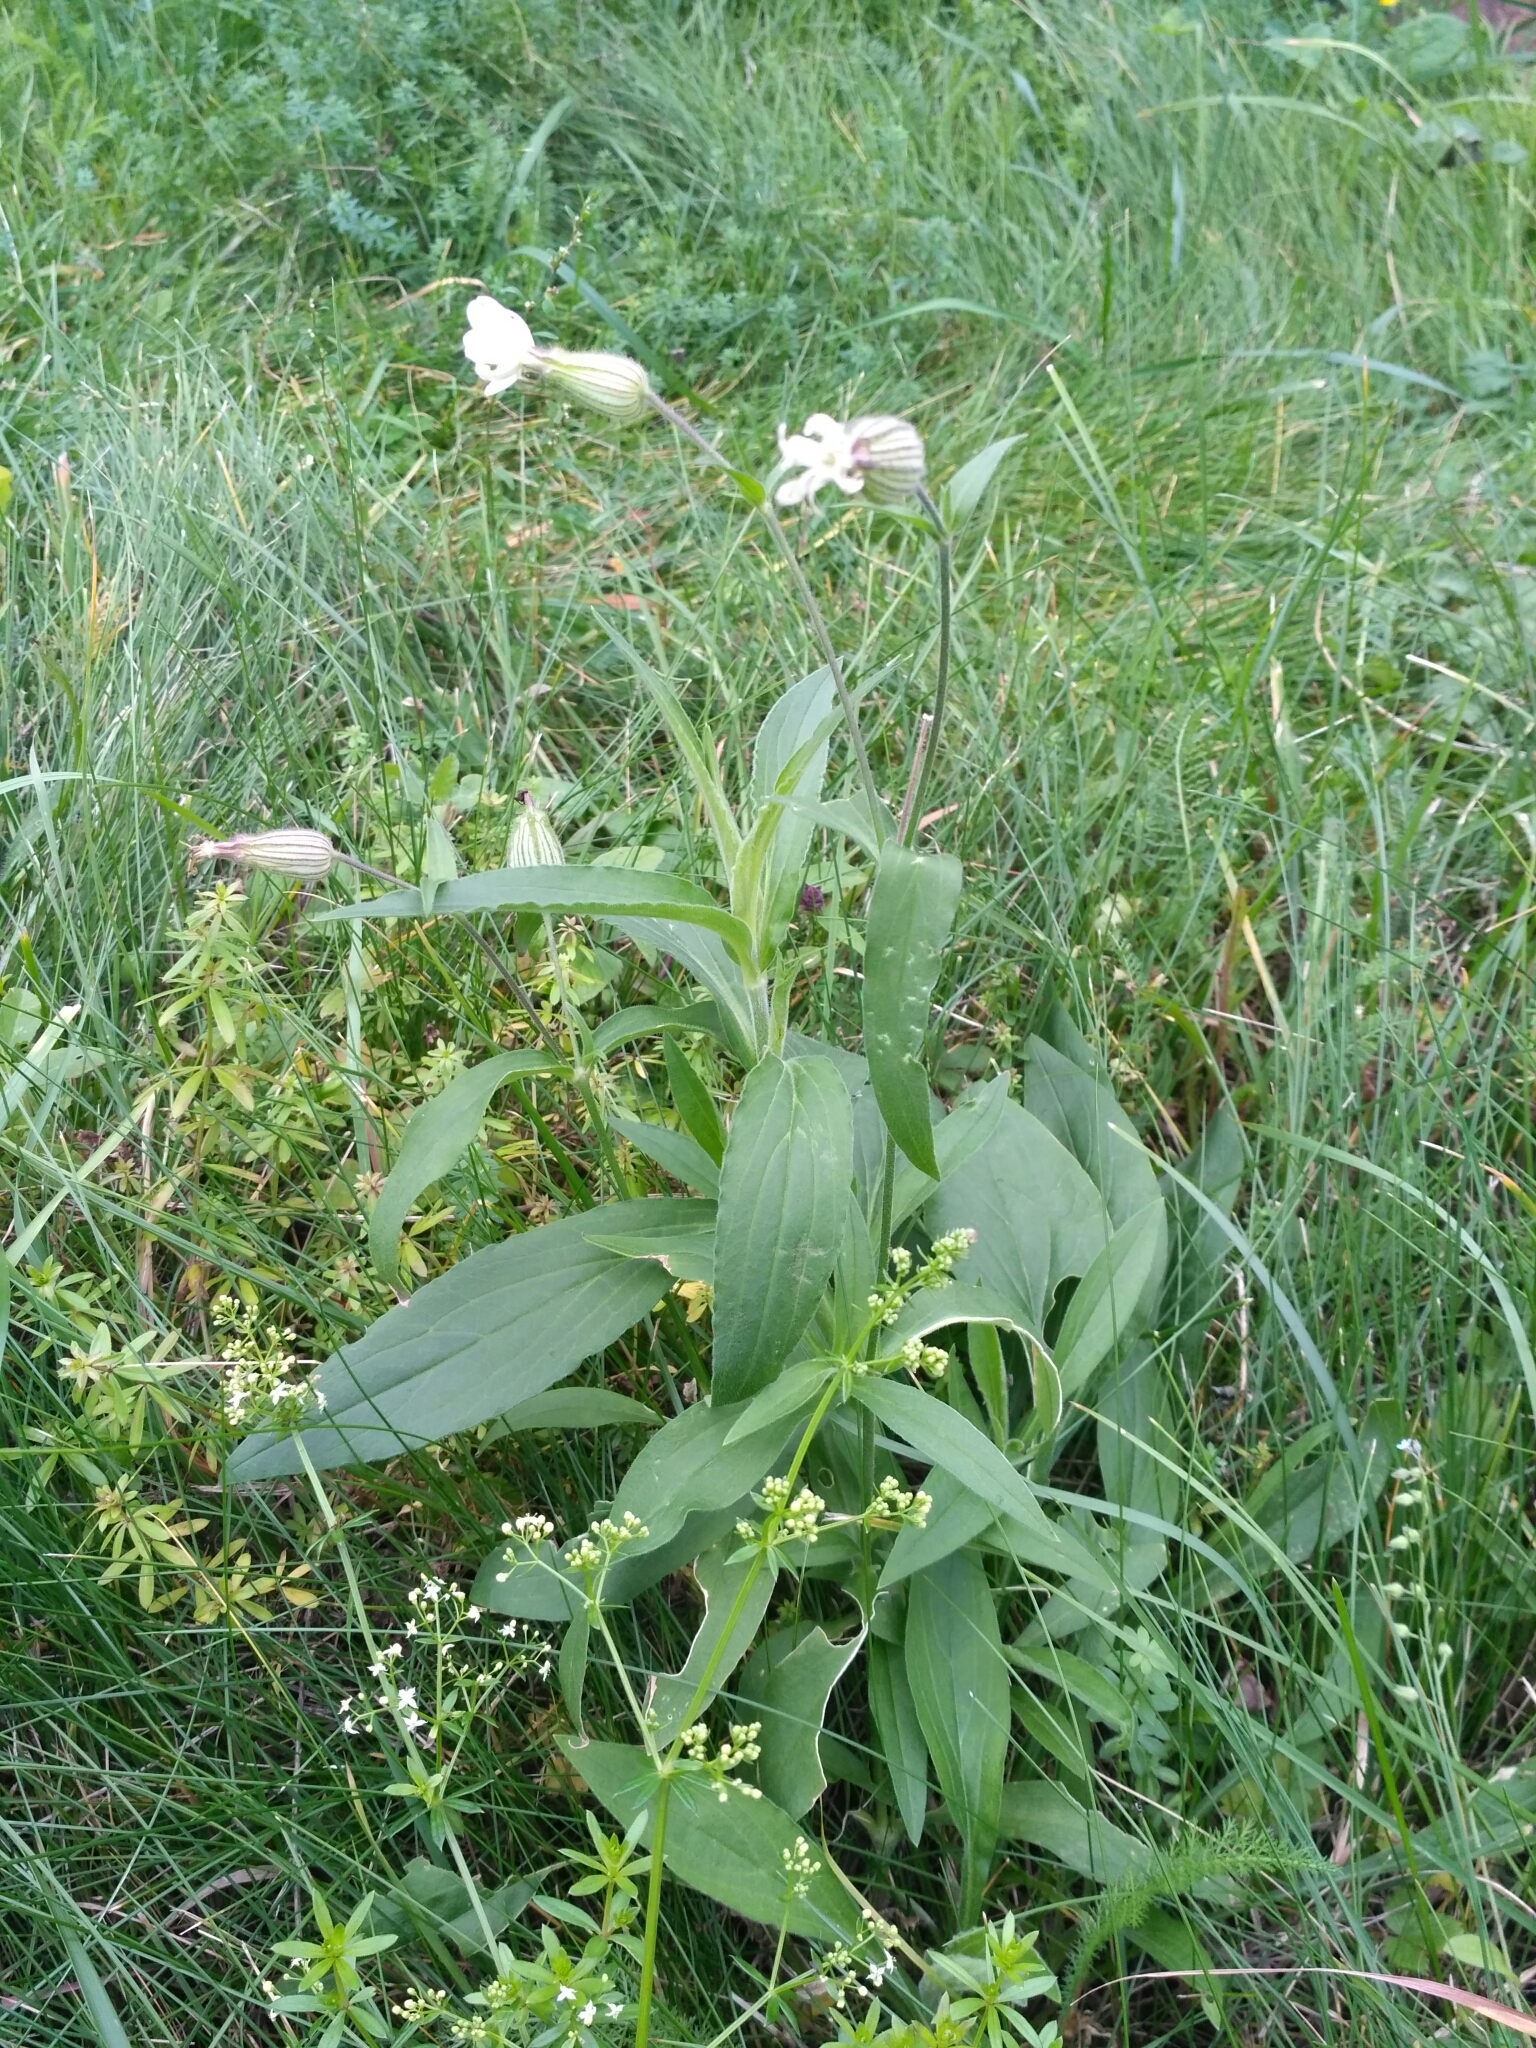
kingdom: Plantae
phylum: Tracheophyta
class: Magnoliopsida
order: Caryophyllales
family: Caryophyllaceae
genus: Silene
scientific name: Silene latifolia
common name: White campion
